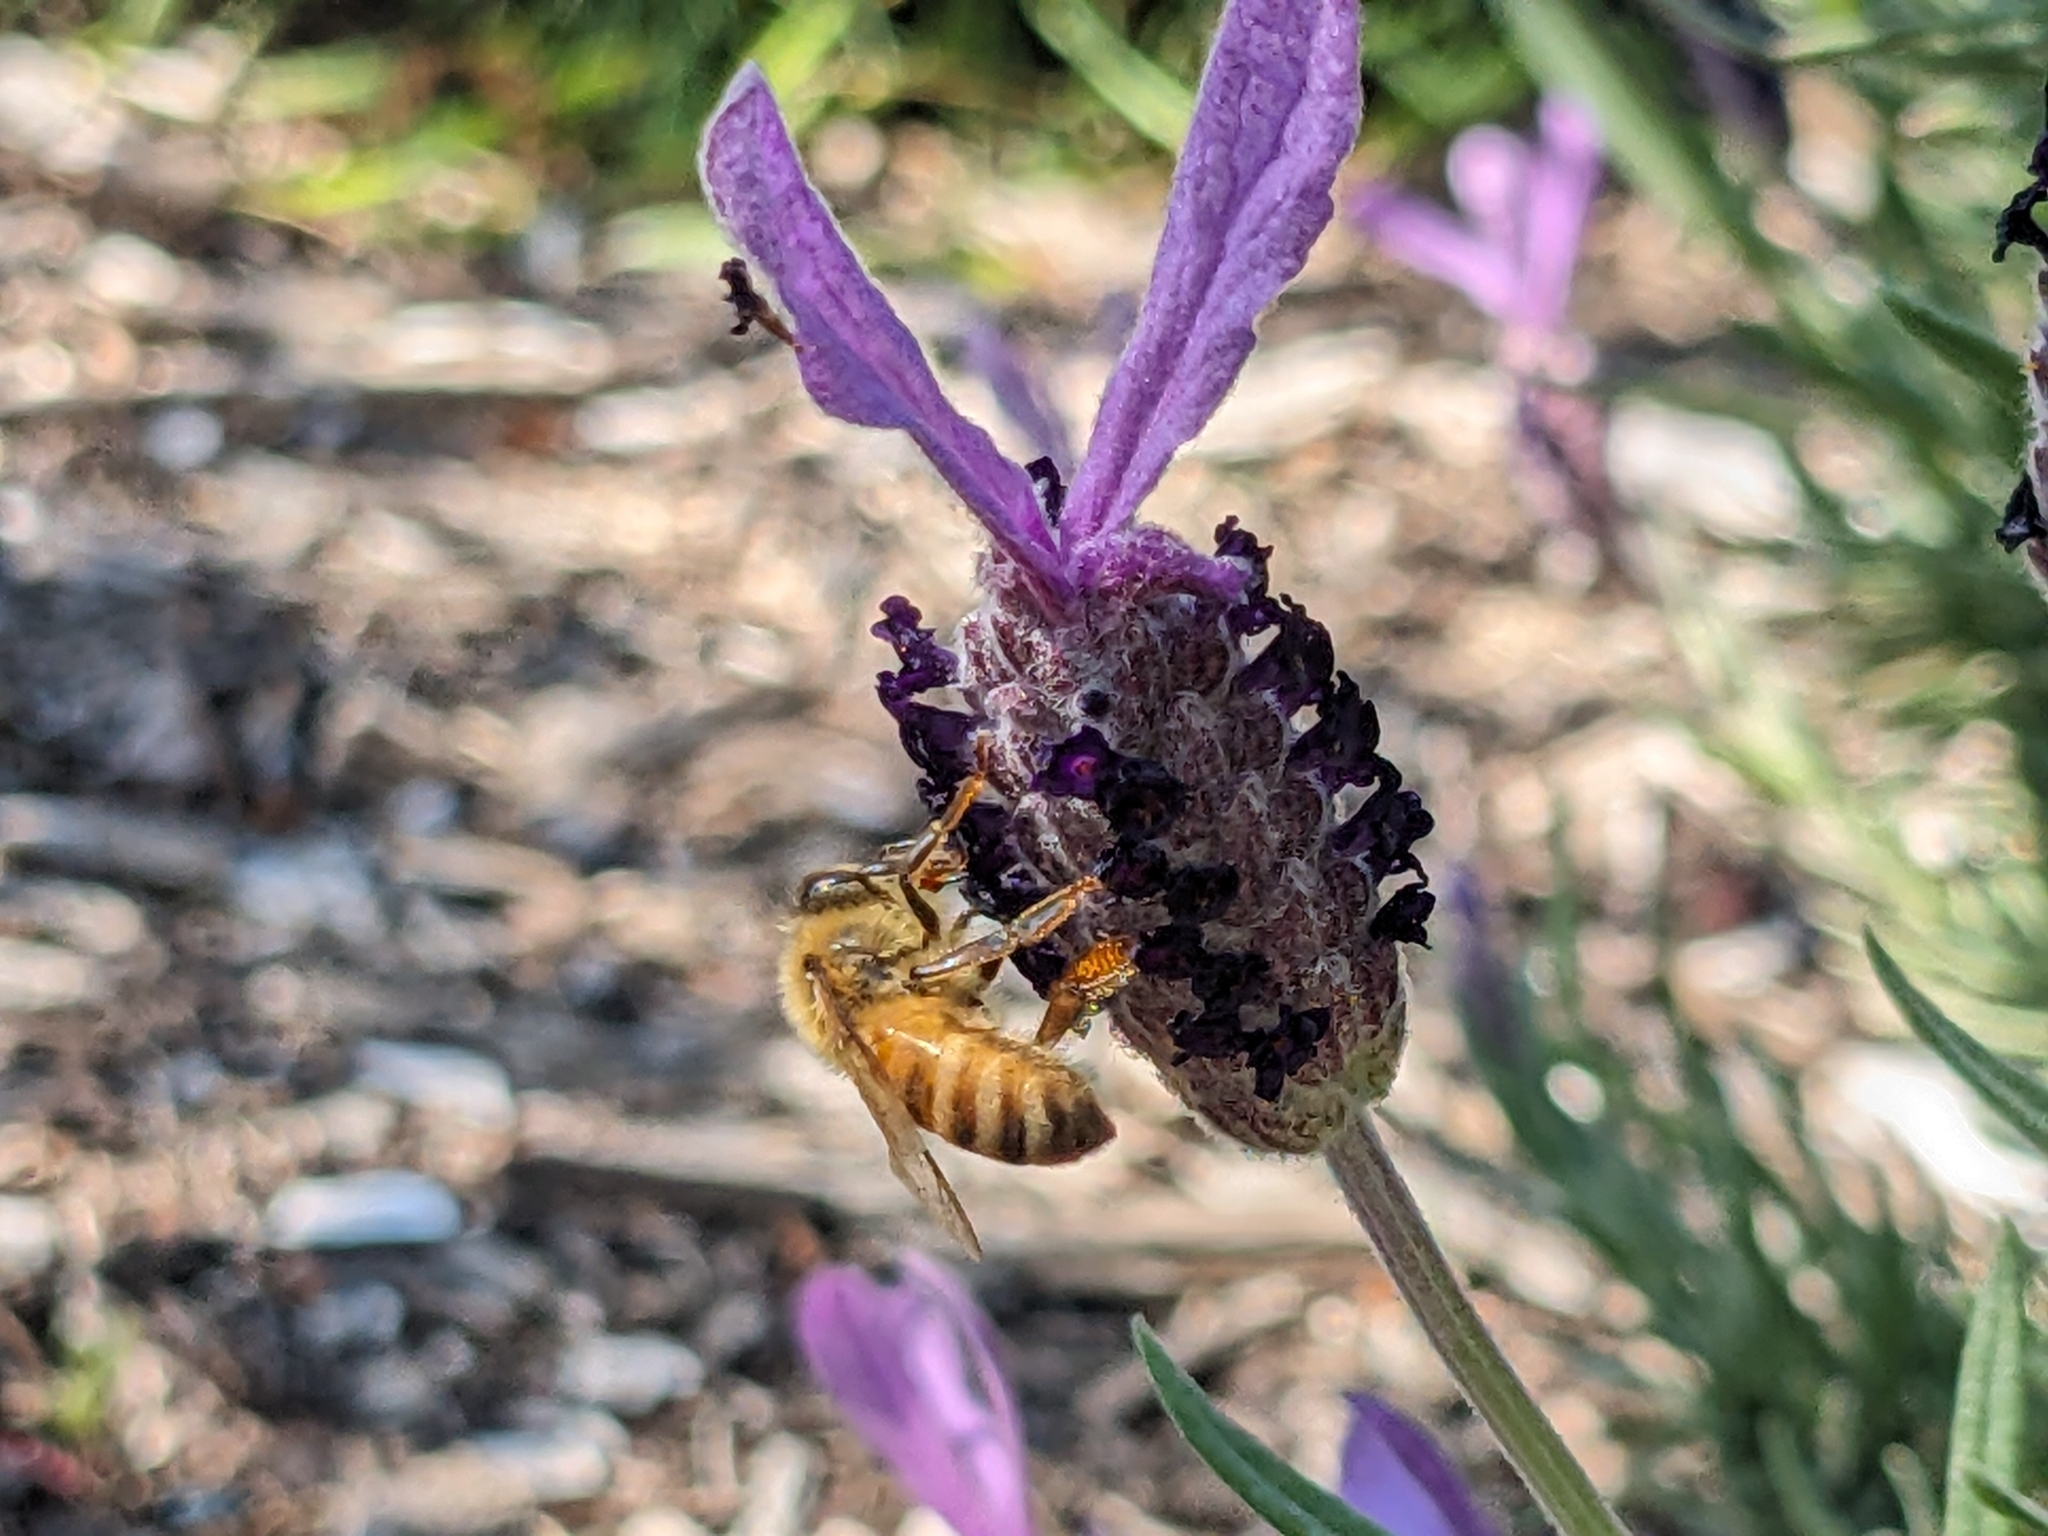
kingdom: Animalia
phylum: Arthropoda
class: Insecta
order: Hymenoptera
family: Apidae
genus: Apis
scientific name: Apis mellifera
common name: Honey bee
